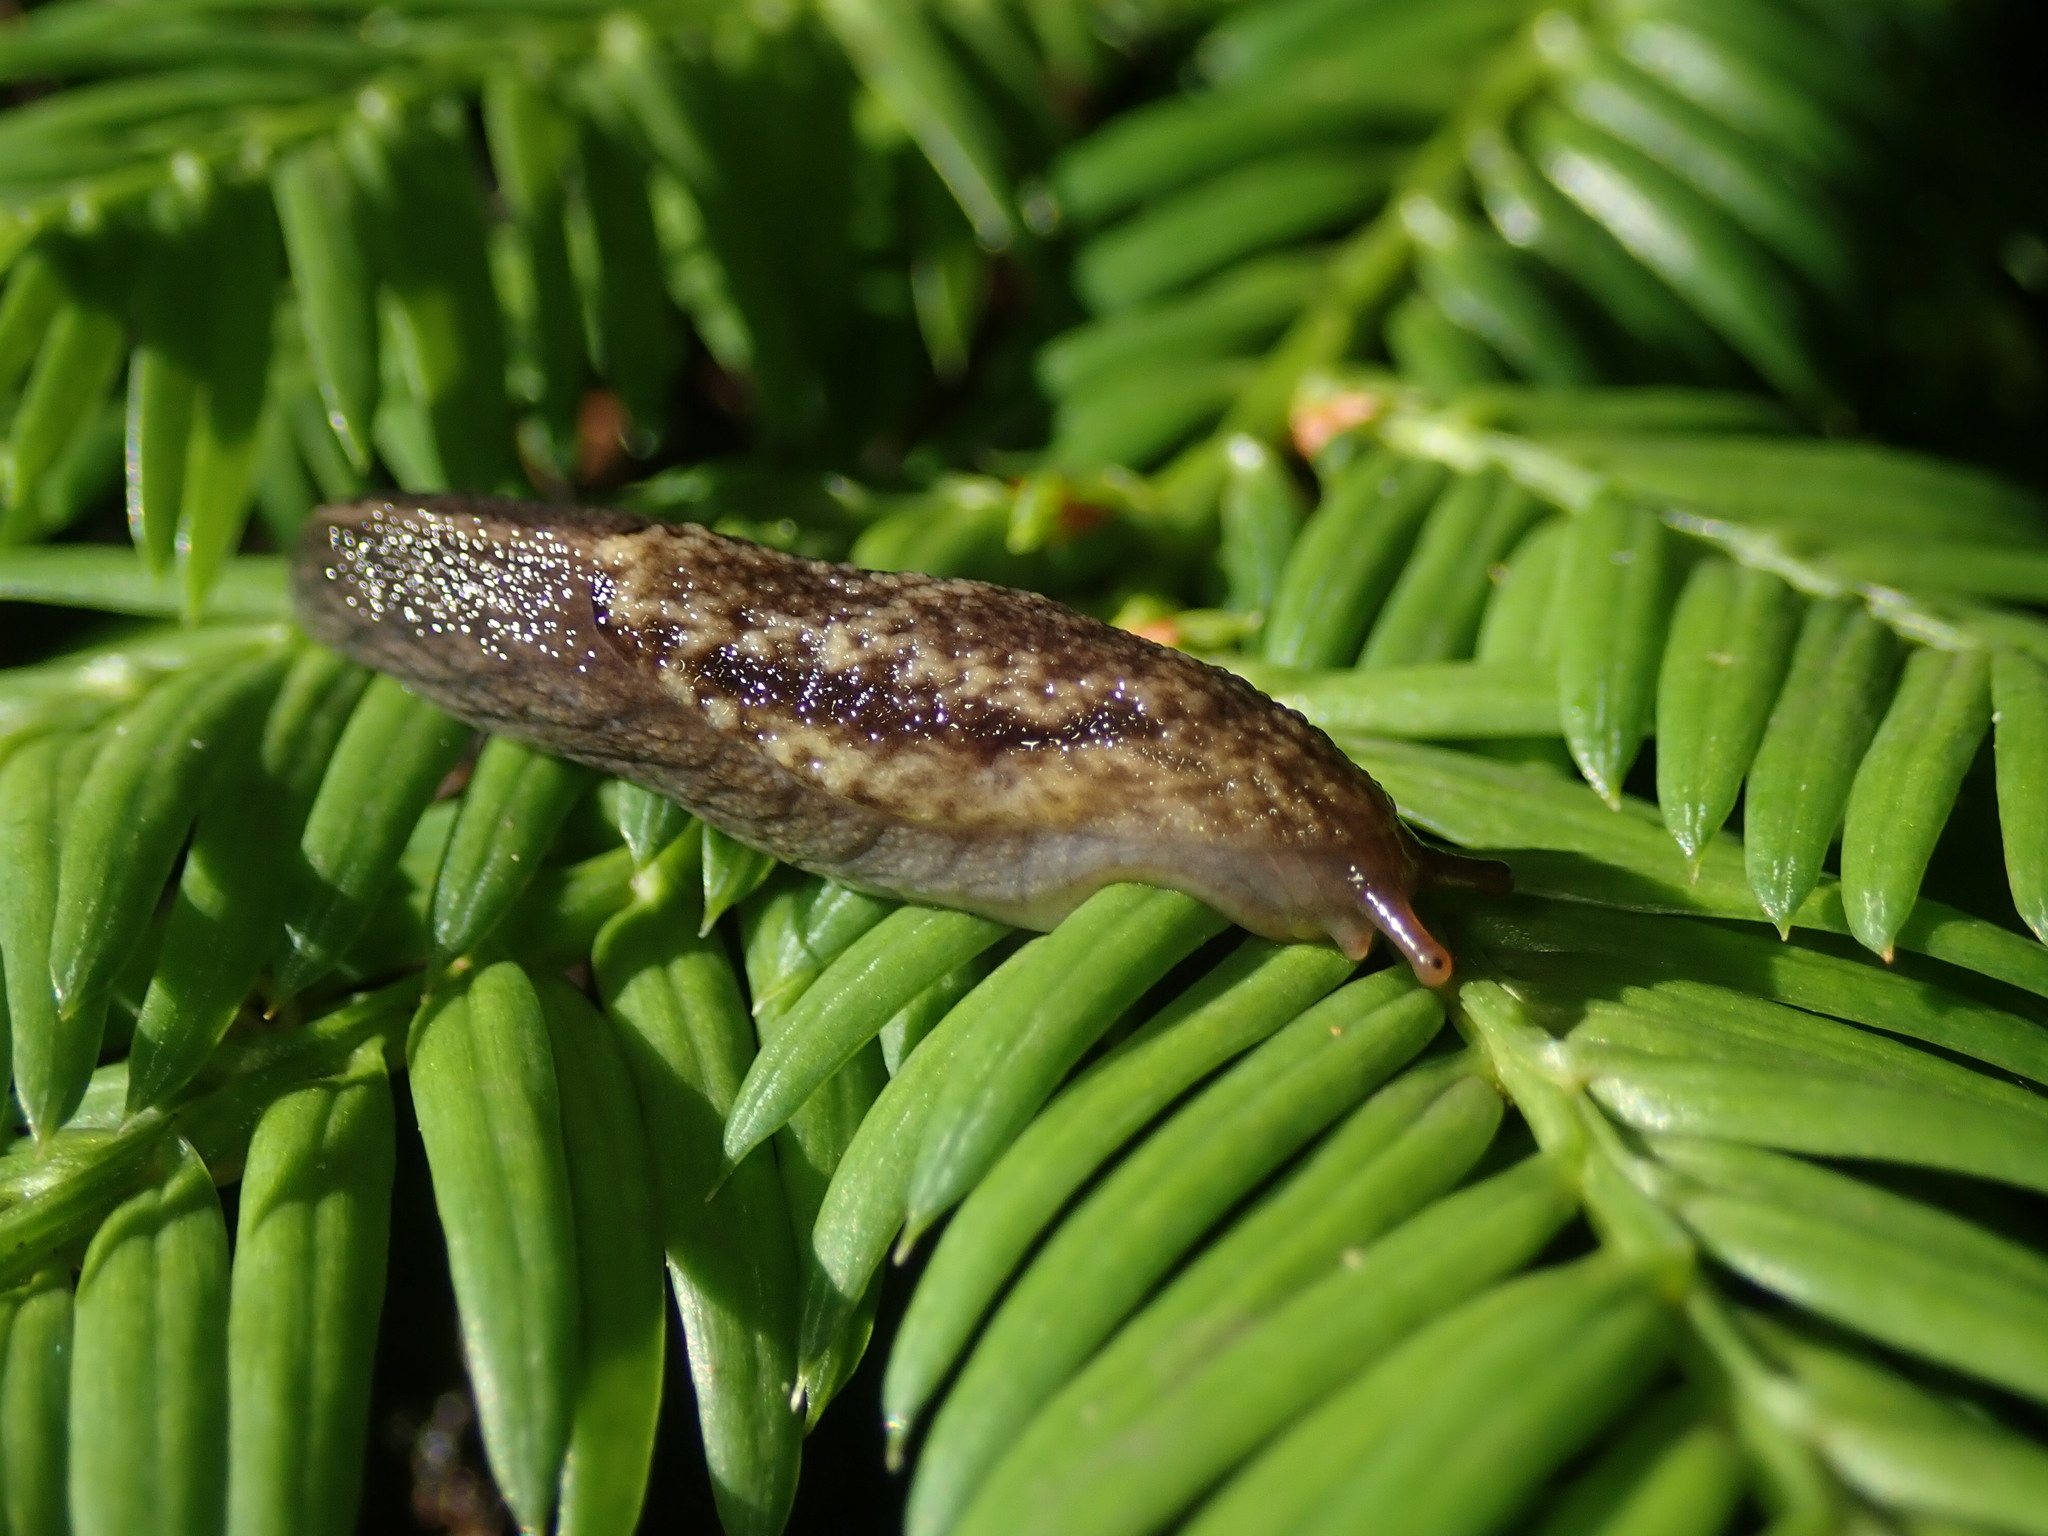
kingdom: Animalia
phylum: Mollusca
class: Gastropoda
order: Stylommatophora
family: Ariolimacidae
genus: Prophysaon
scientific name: Prophysaon andersonii
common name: Reticulate taildropper
